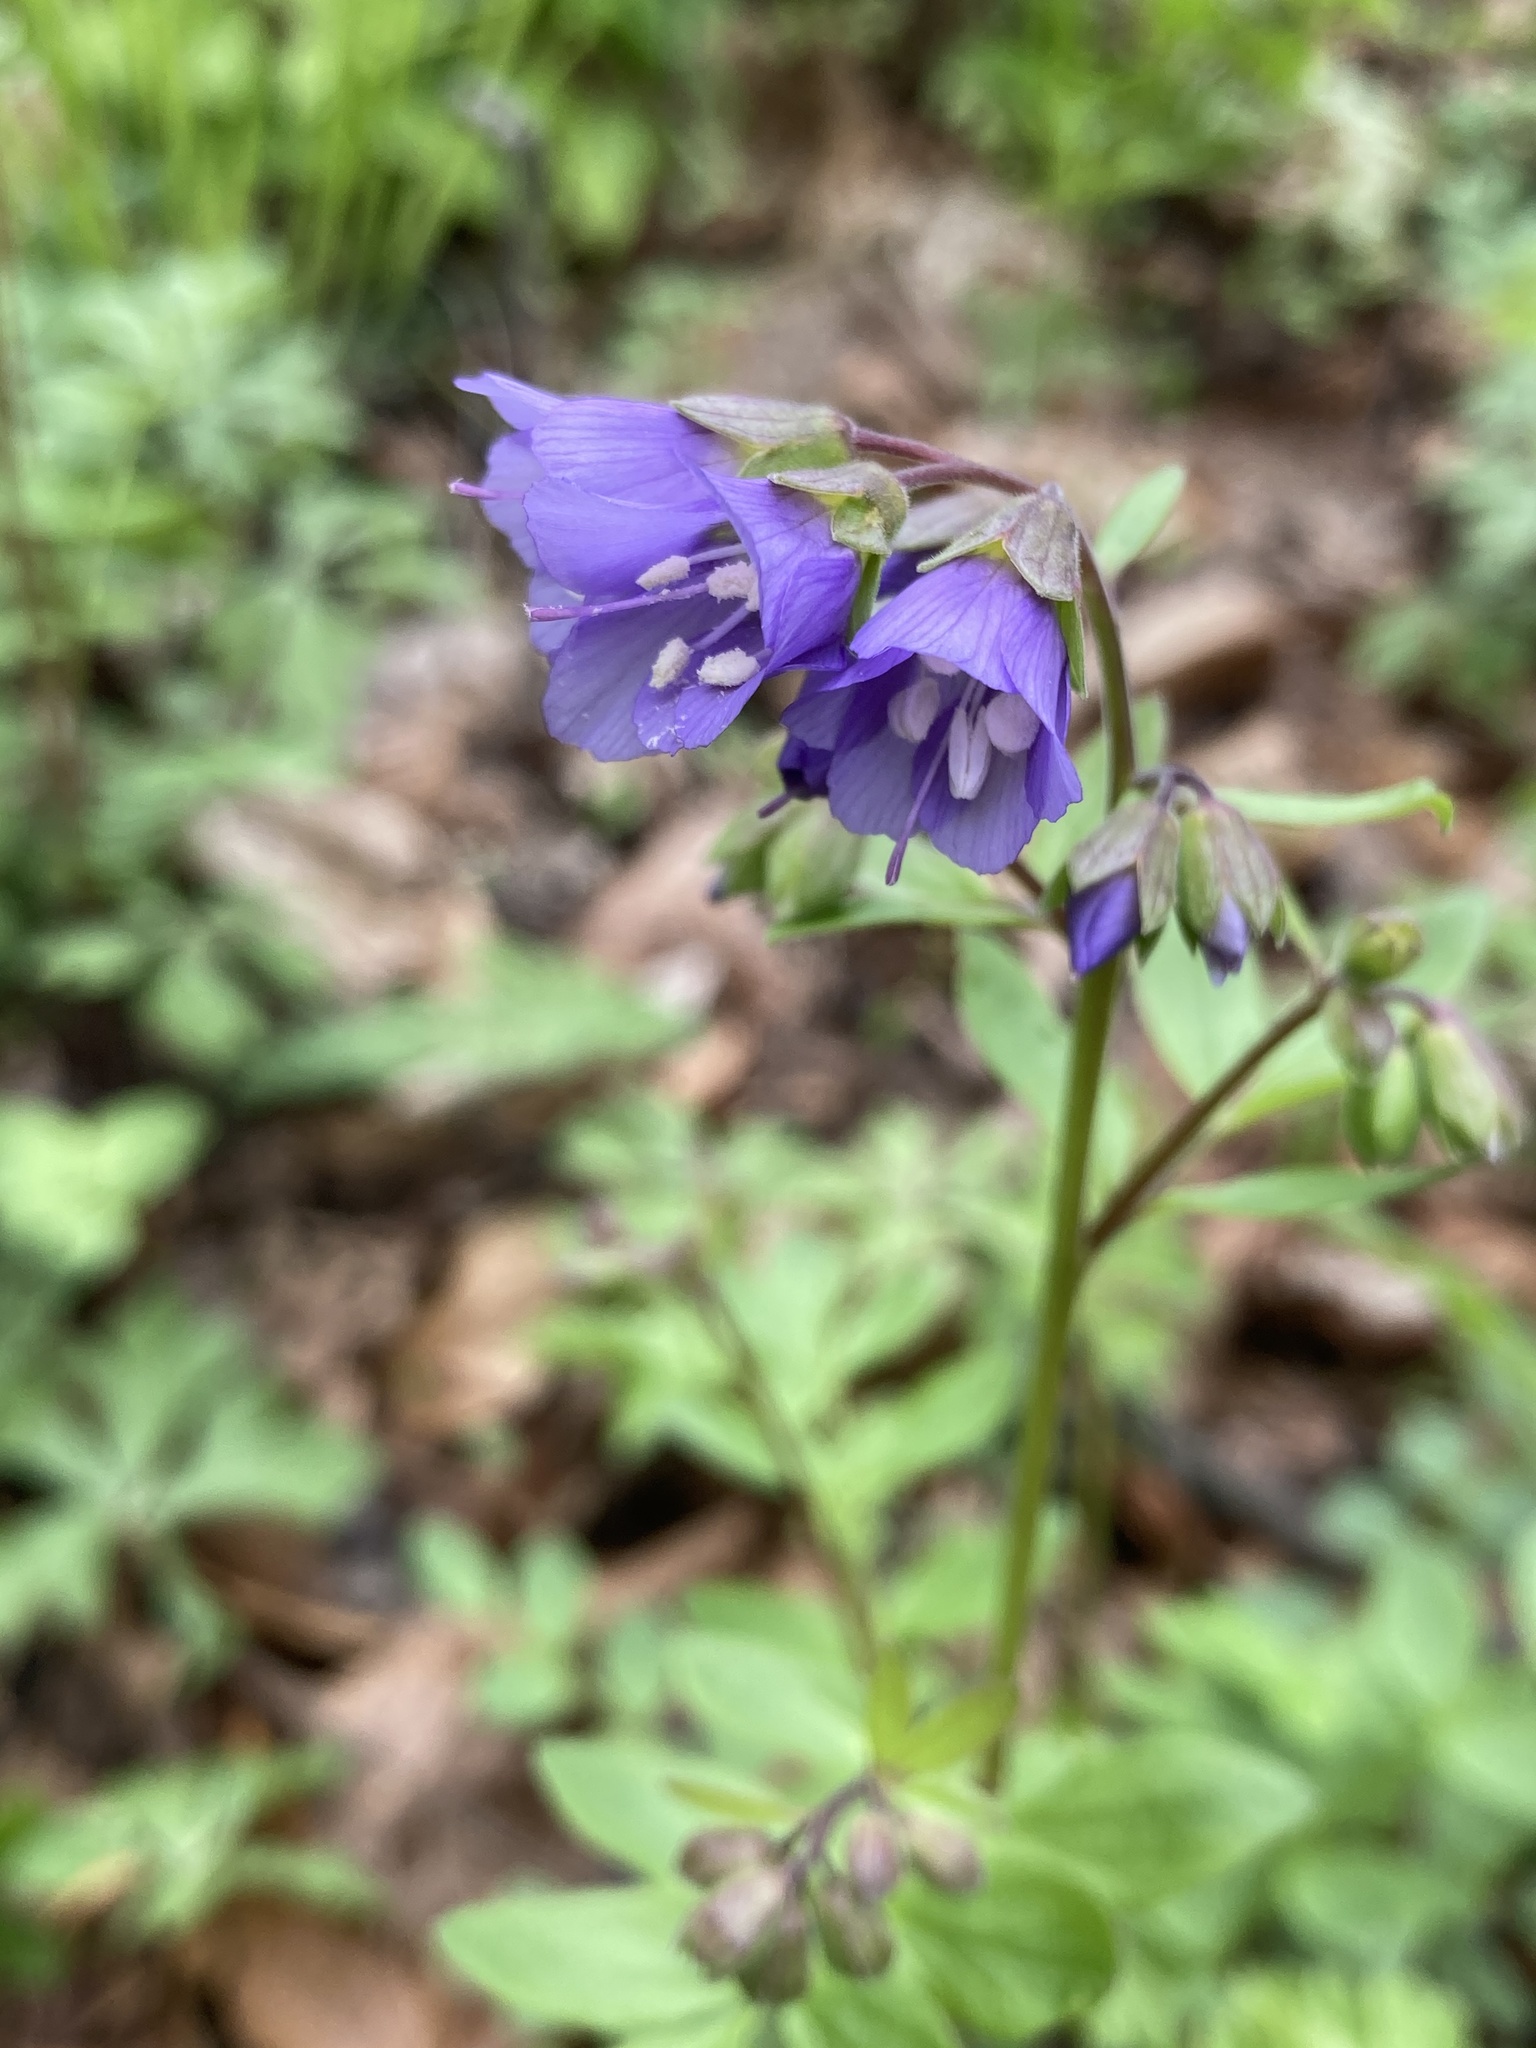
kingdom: Plantae
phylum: Tracheophyta
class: Magnoliopsida
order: Ericales
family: Polemoniaceae
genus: Polemonium
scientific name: Polemonium reptans
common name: Creeping jacob's-ladder
